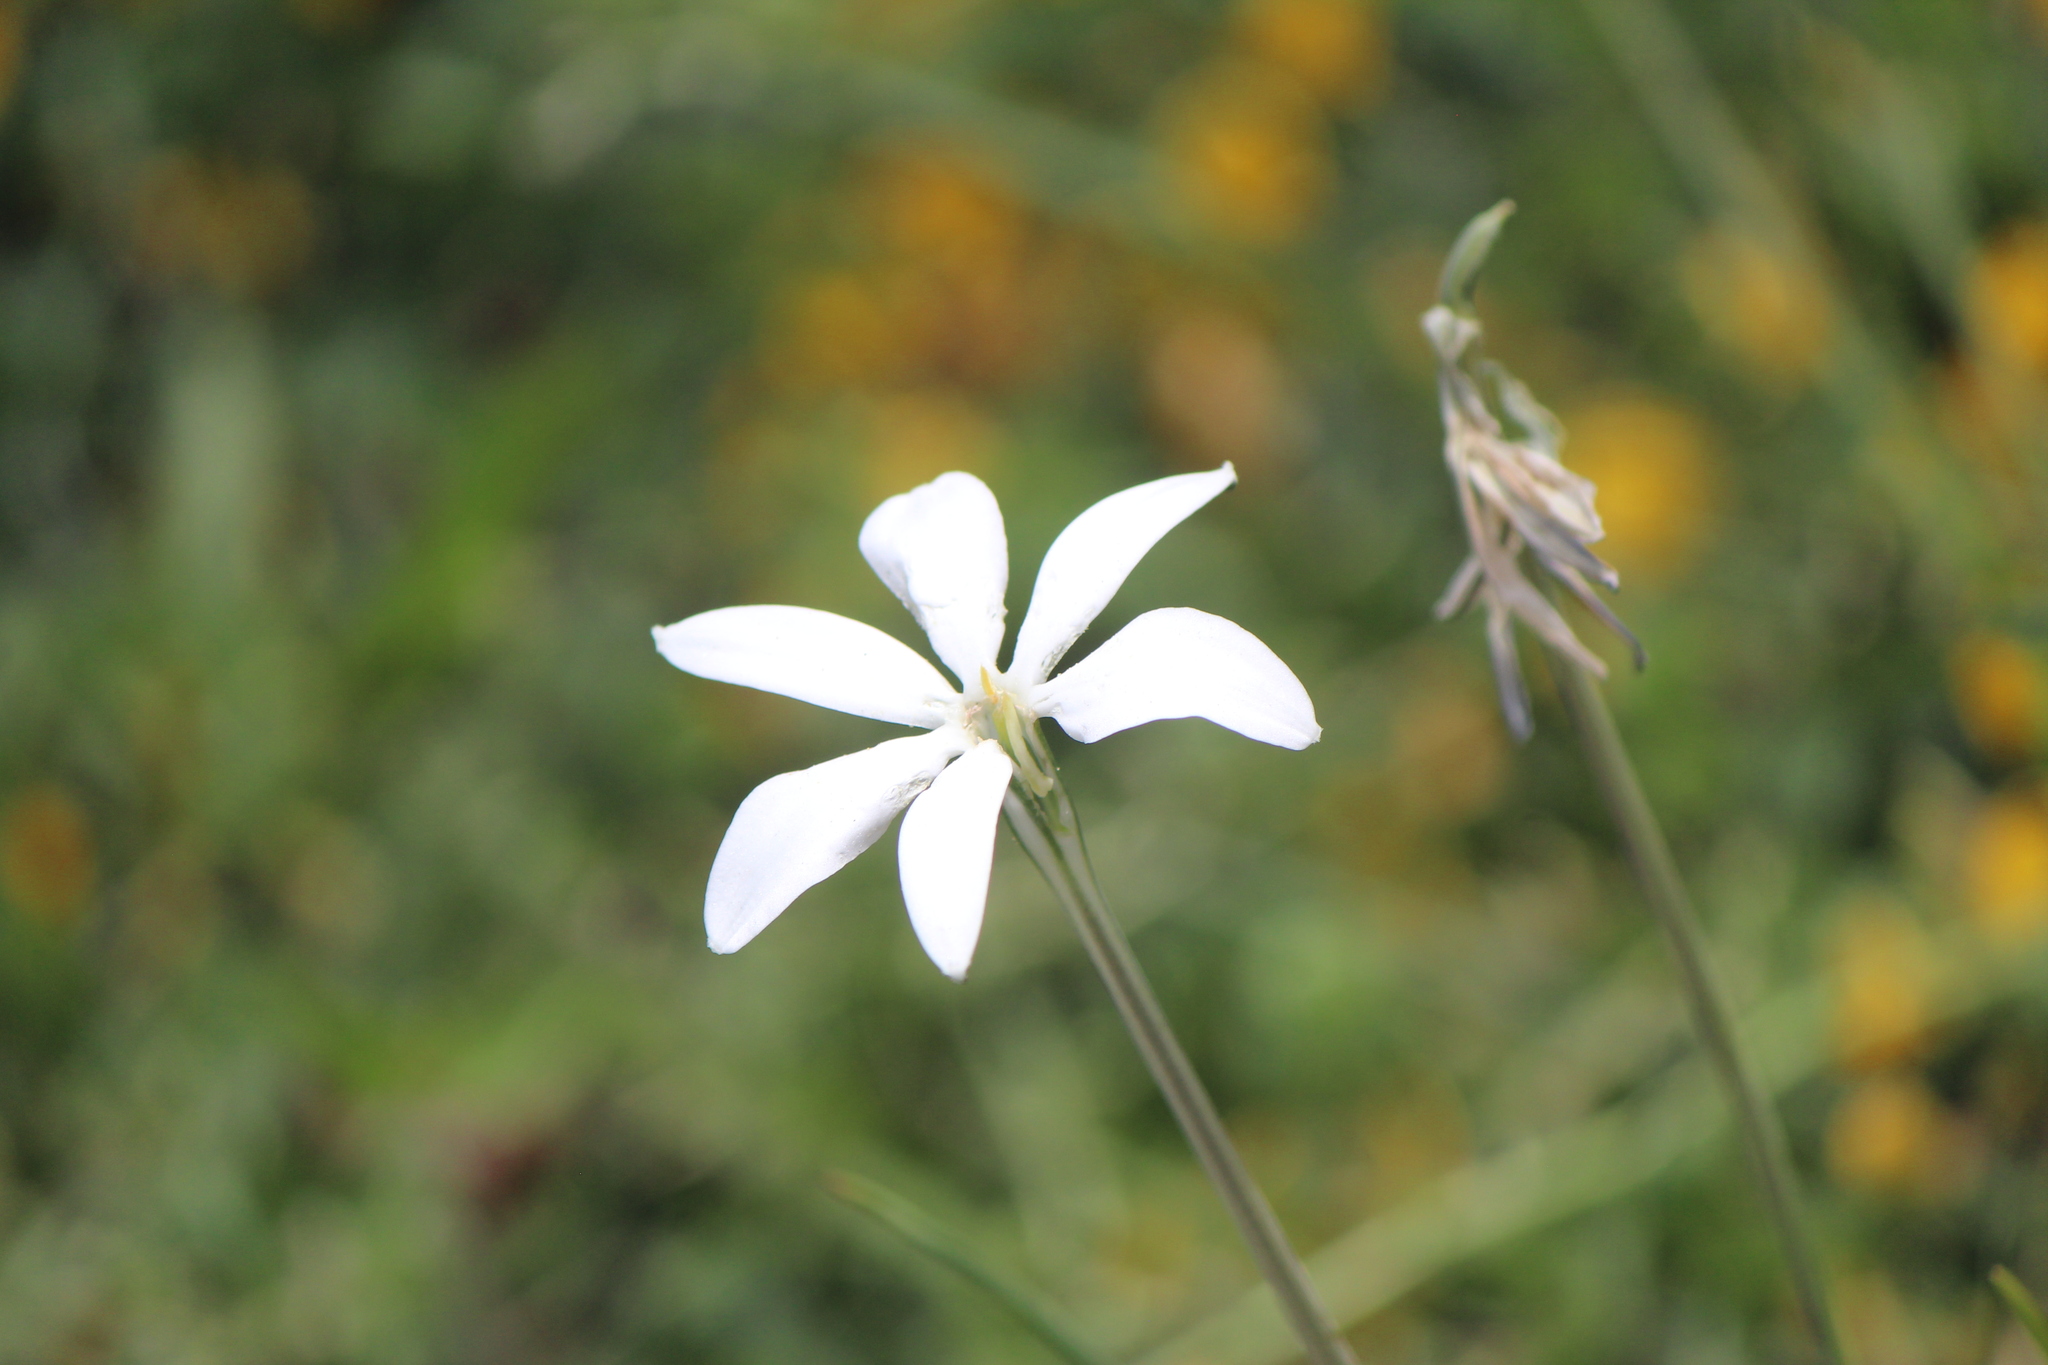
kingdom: Plantae
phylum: Tracheophyta
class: Liliopsida
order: Asparagales
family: Asparagaceae
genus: Milla
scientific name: Milla biflora
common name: Mexican-star
